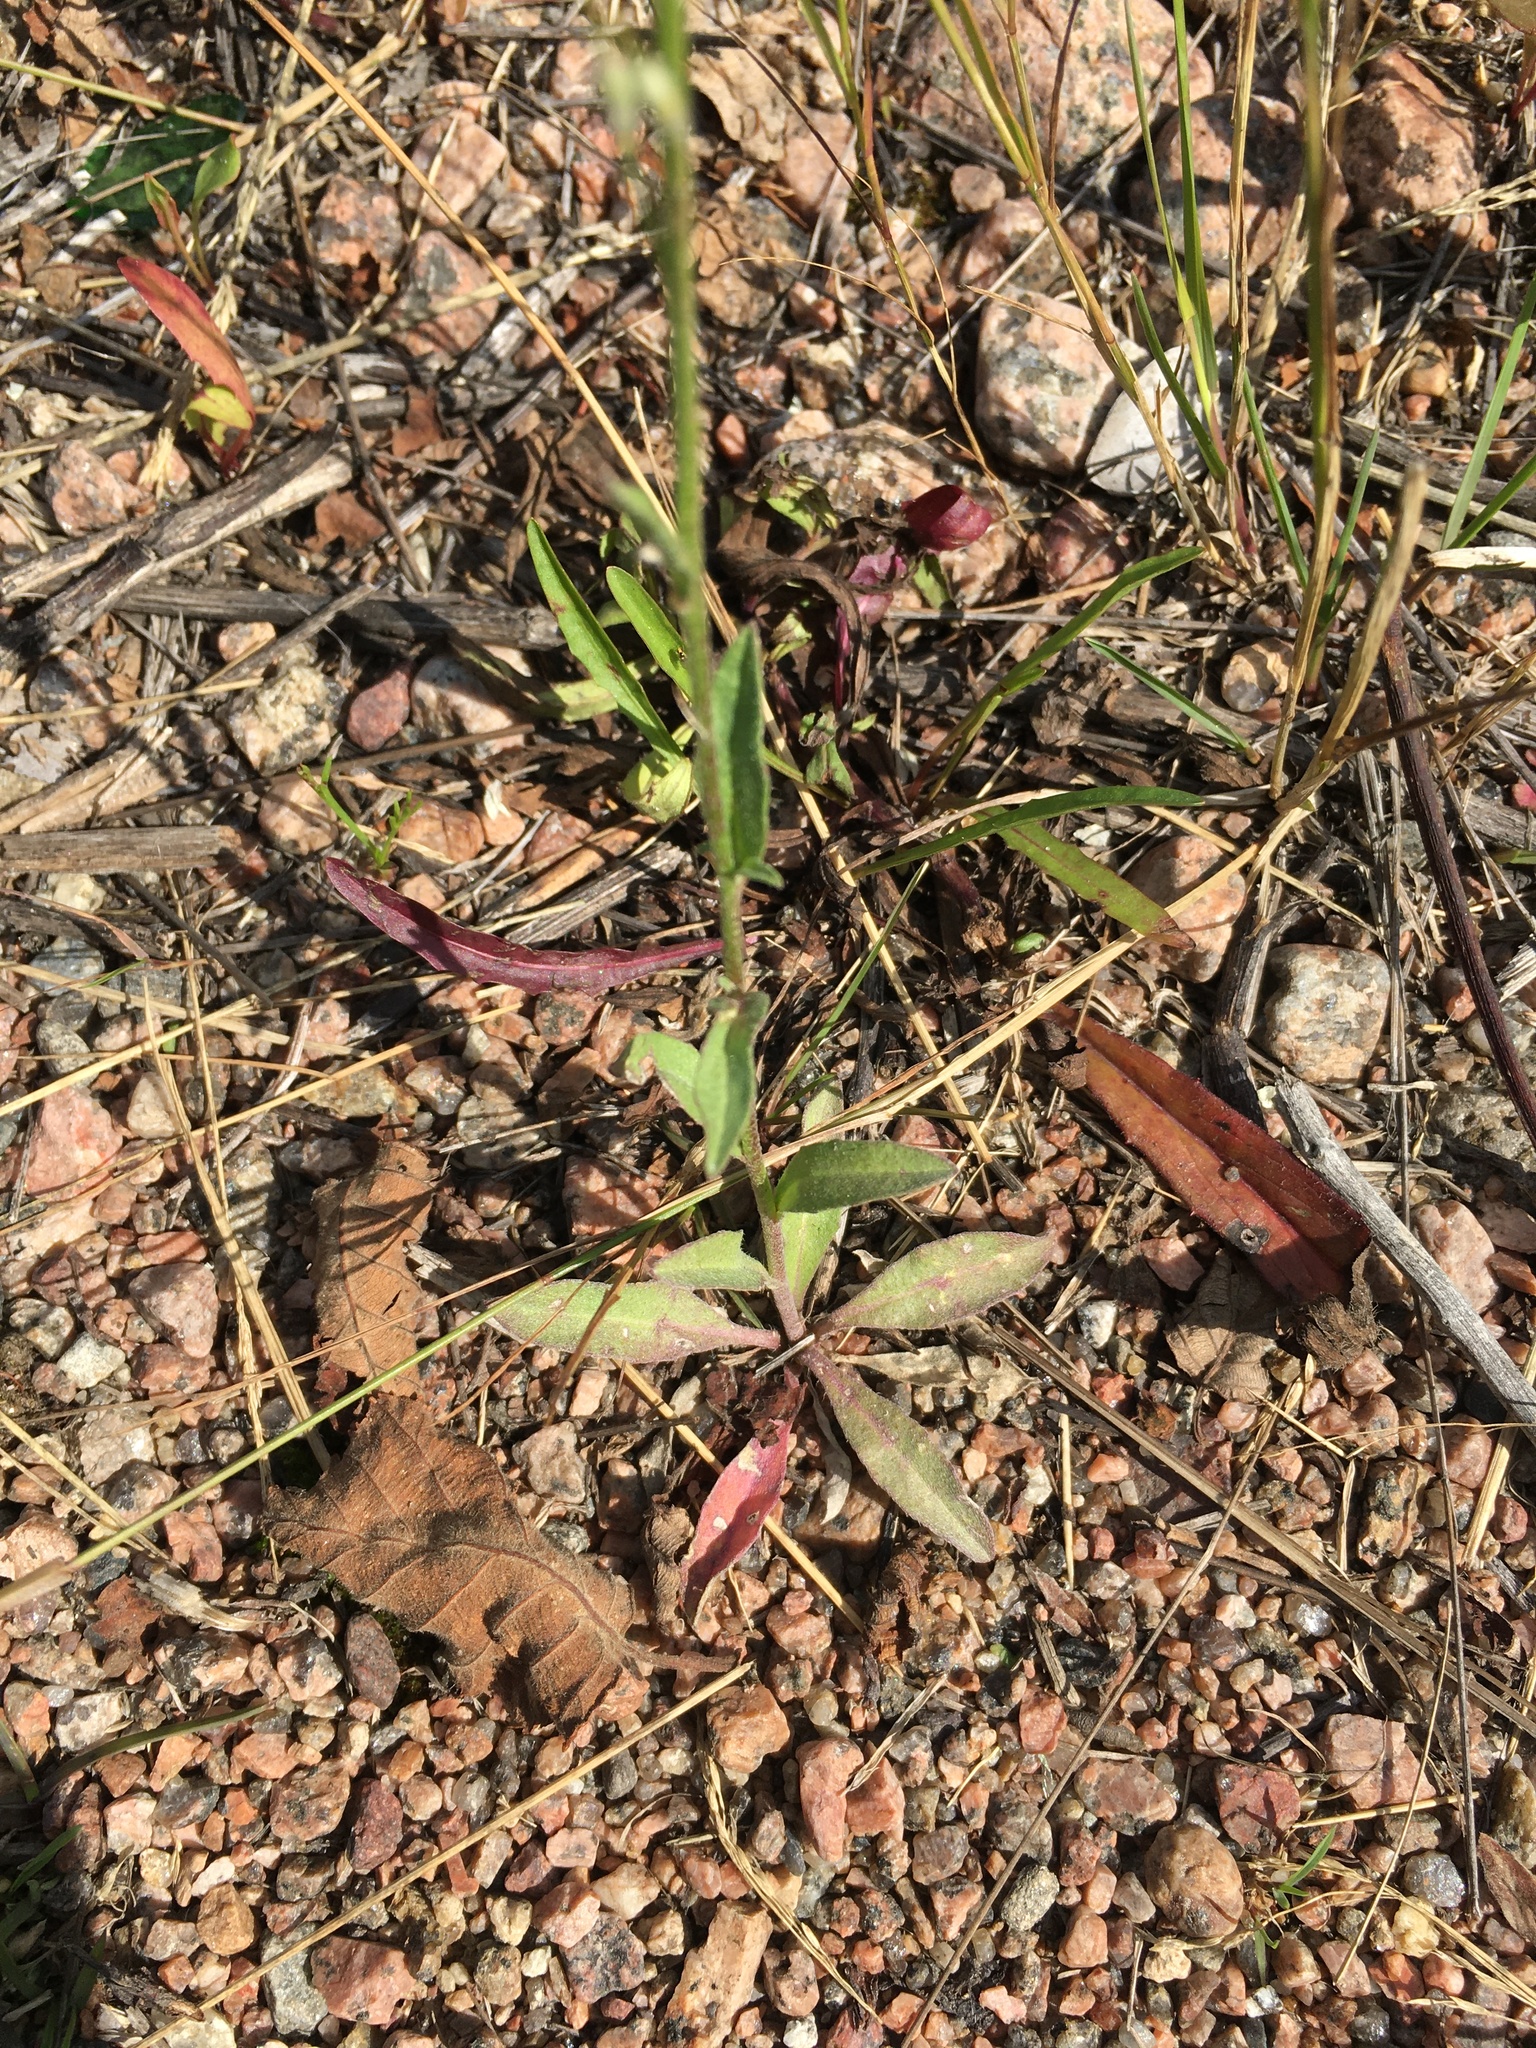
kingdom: Plantae
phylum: Tracheophyta
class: Magnoliopsida
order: Brassicales
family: Brassicaceae
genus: Berteroa
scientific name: Berteroa incana
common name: Hoary alison
